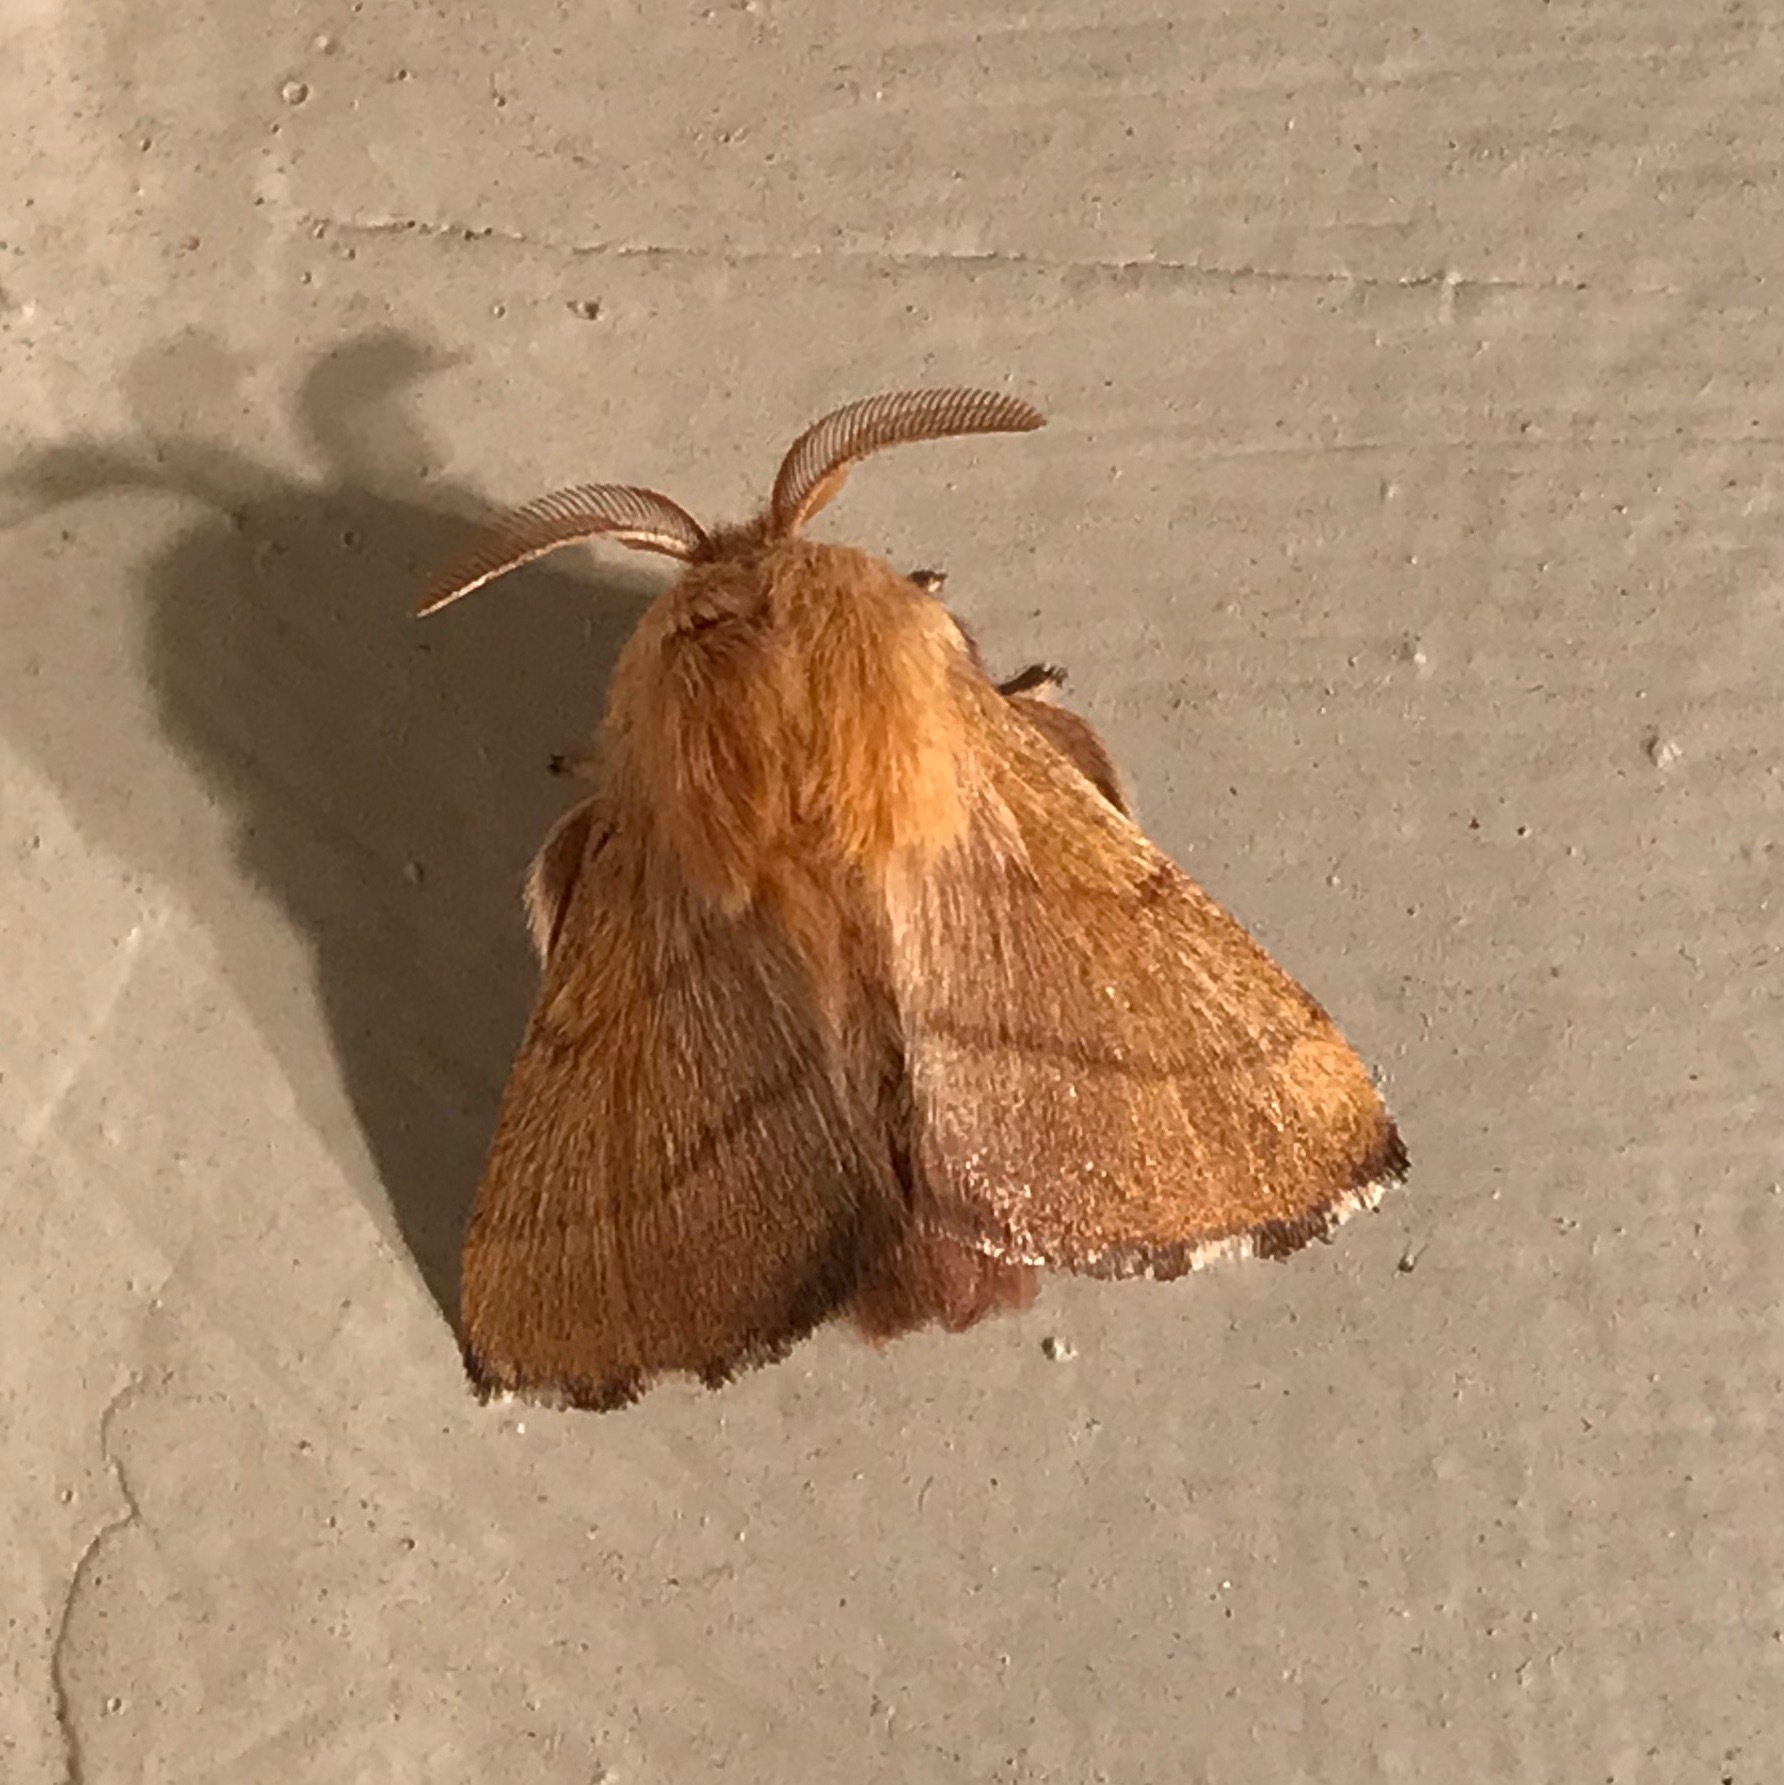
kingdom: Animalia
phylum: Arthropoda
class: Insecta
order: Lepidoptera
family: Lasiocampidae
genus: Malacosoma
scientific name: Malacosoma disstria
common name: Forest tent caterpillar
